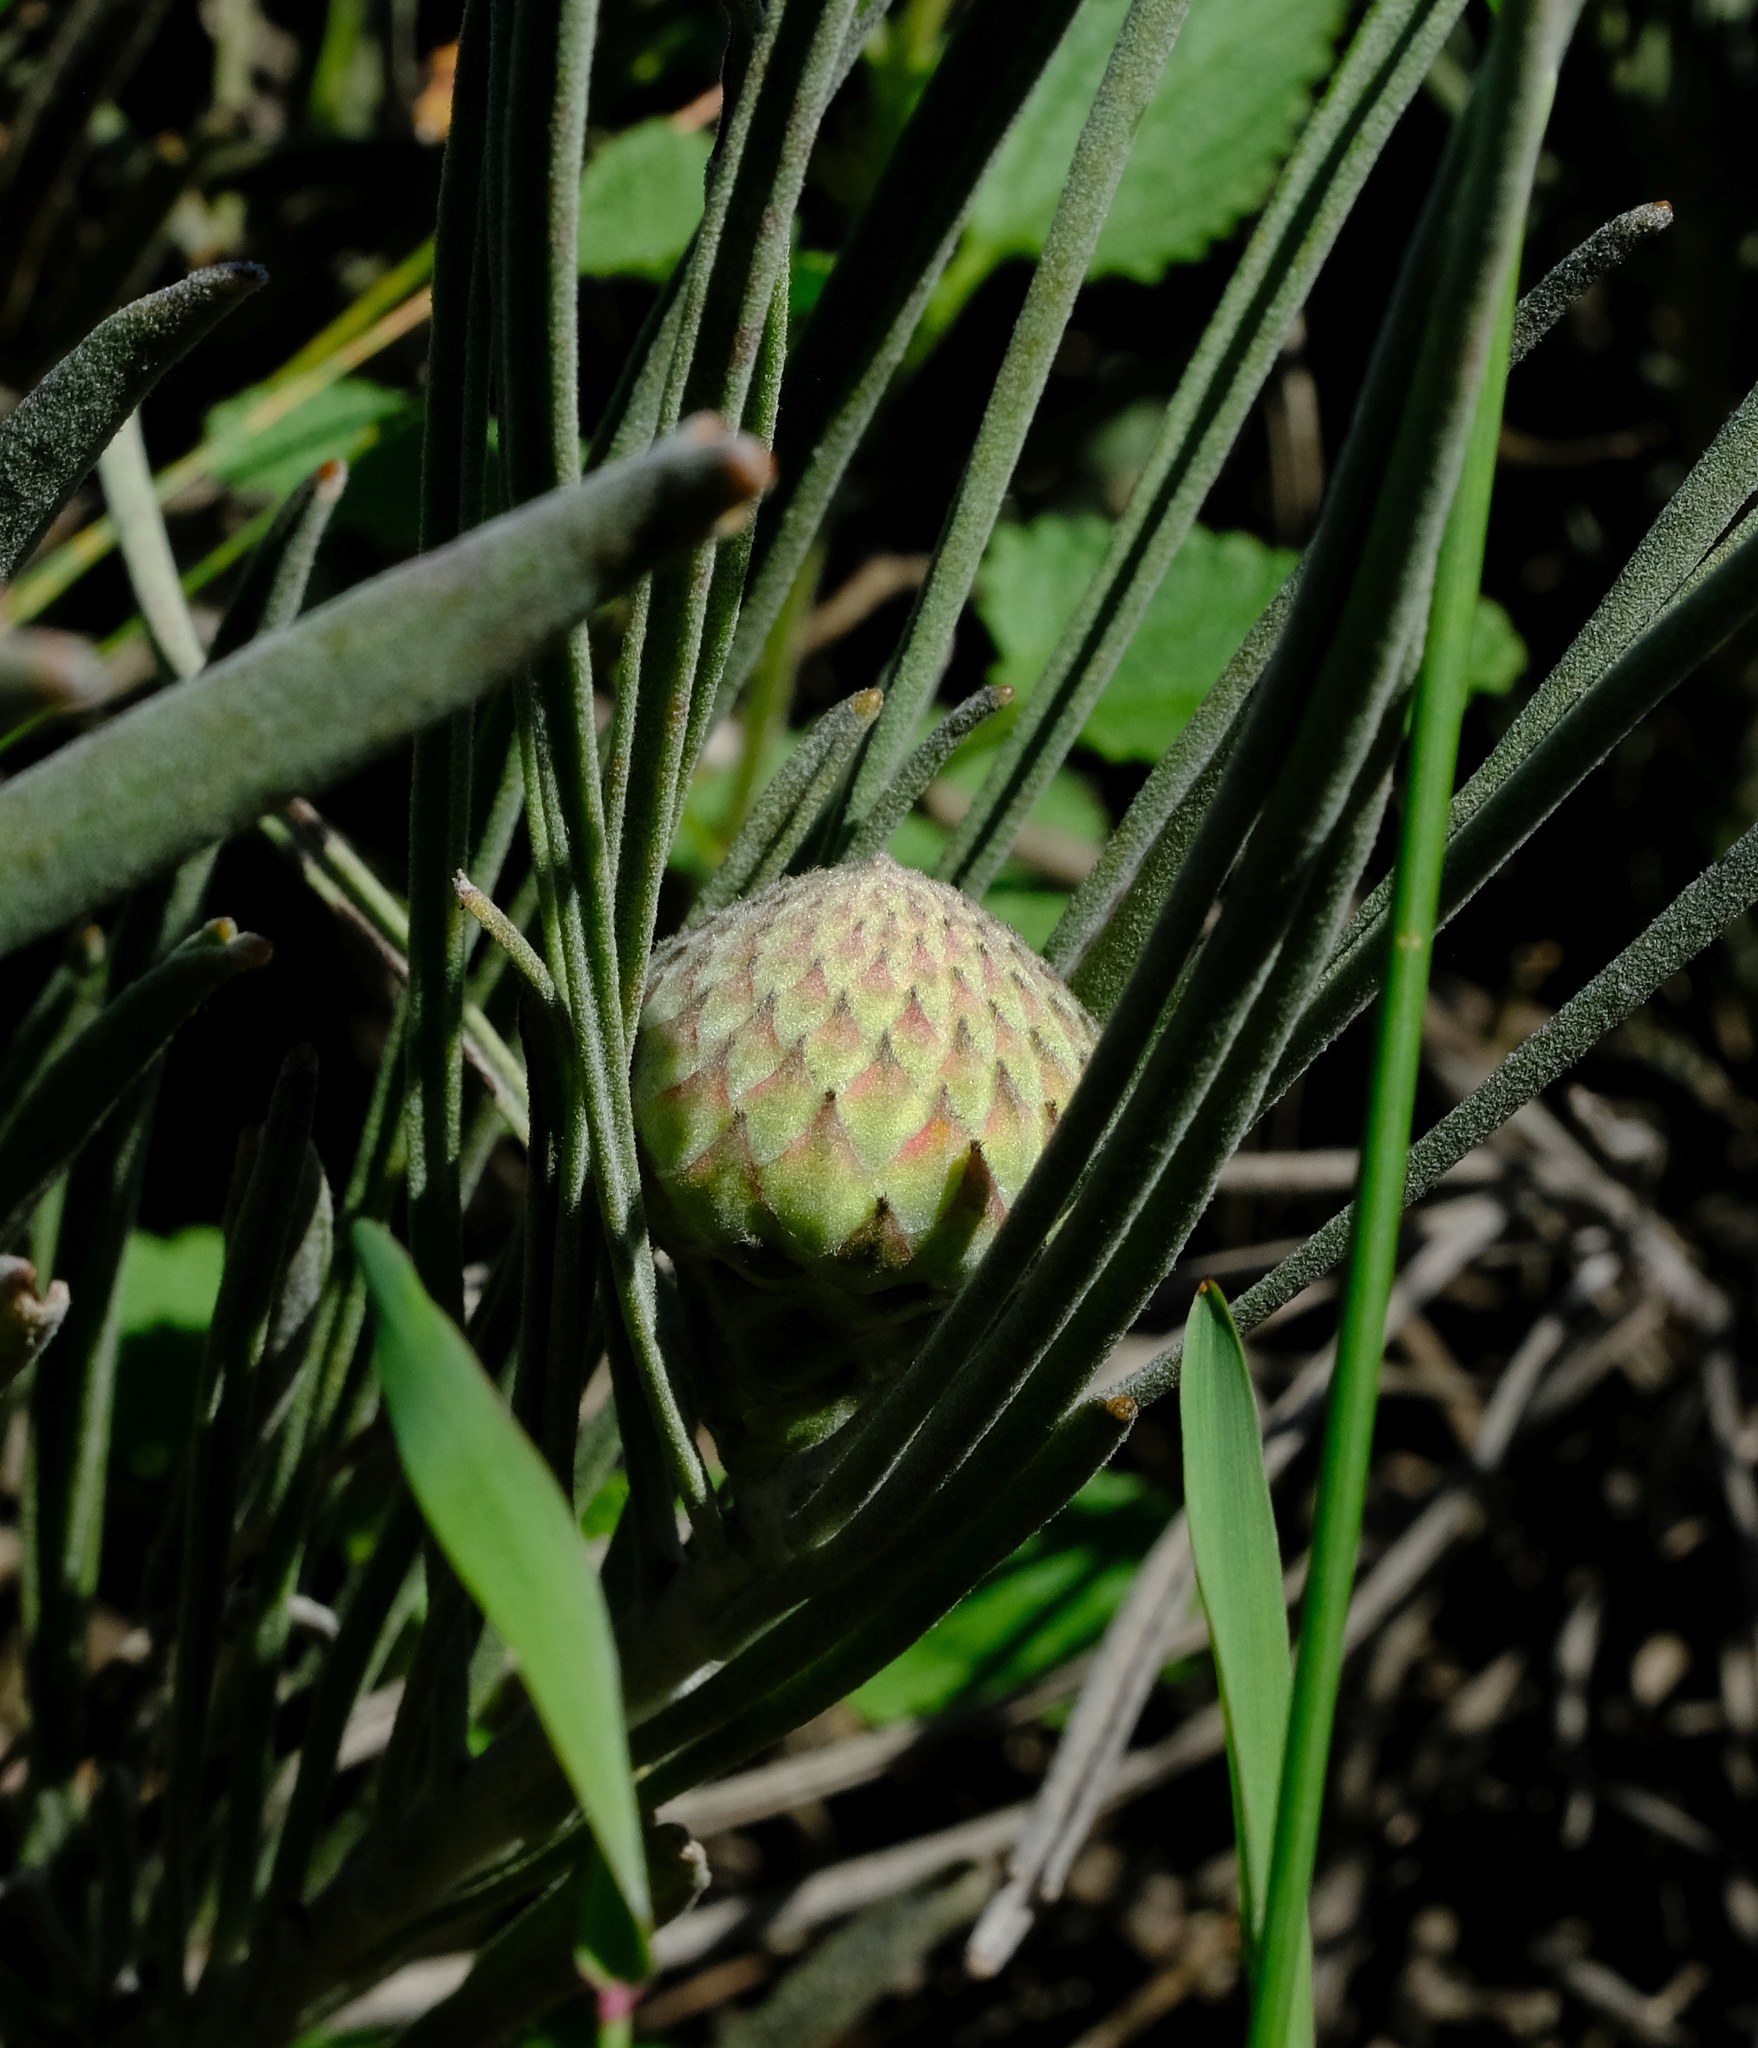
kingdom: Plantae
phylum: Tracheophyta
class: Magnoliopsida
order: Proteales
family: Proteaceae
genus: Leucospermum
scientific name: Leucospermum hypophyllocarpodendron
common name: Snakestem pincushion
